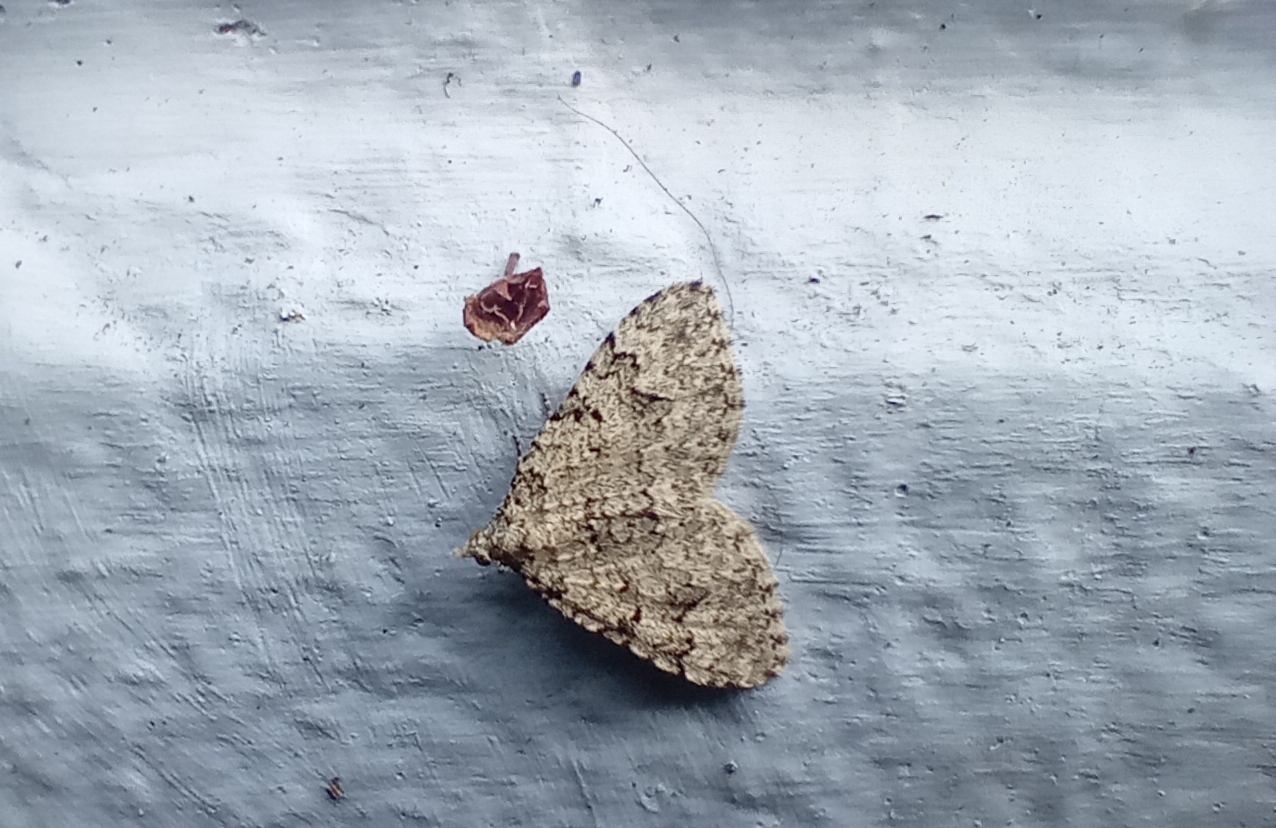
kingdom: Animalia
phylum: Arthropoda
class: Insecta
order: Lepidoptera
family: Geometridae
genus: Helastia
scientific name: Helastia cinerearia
